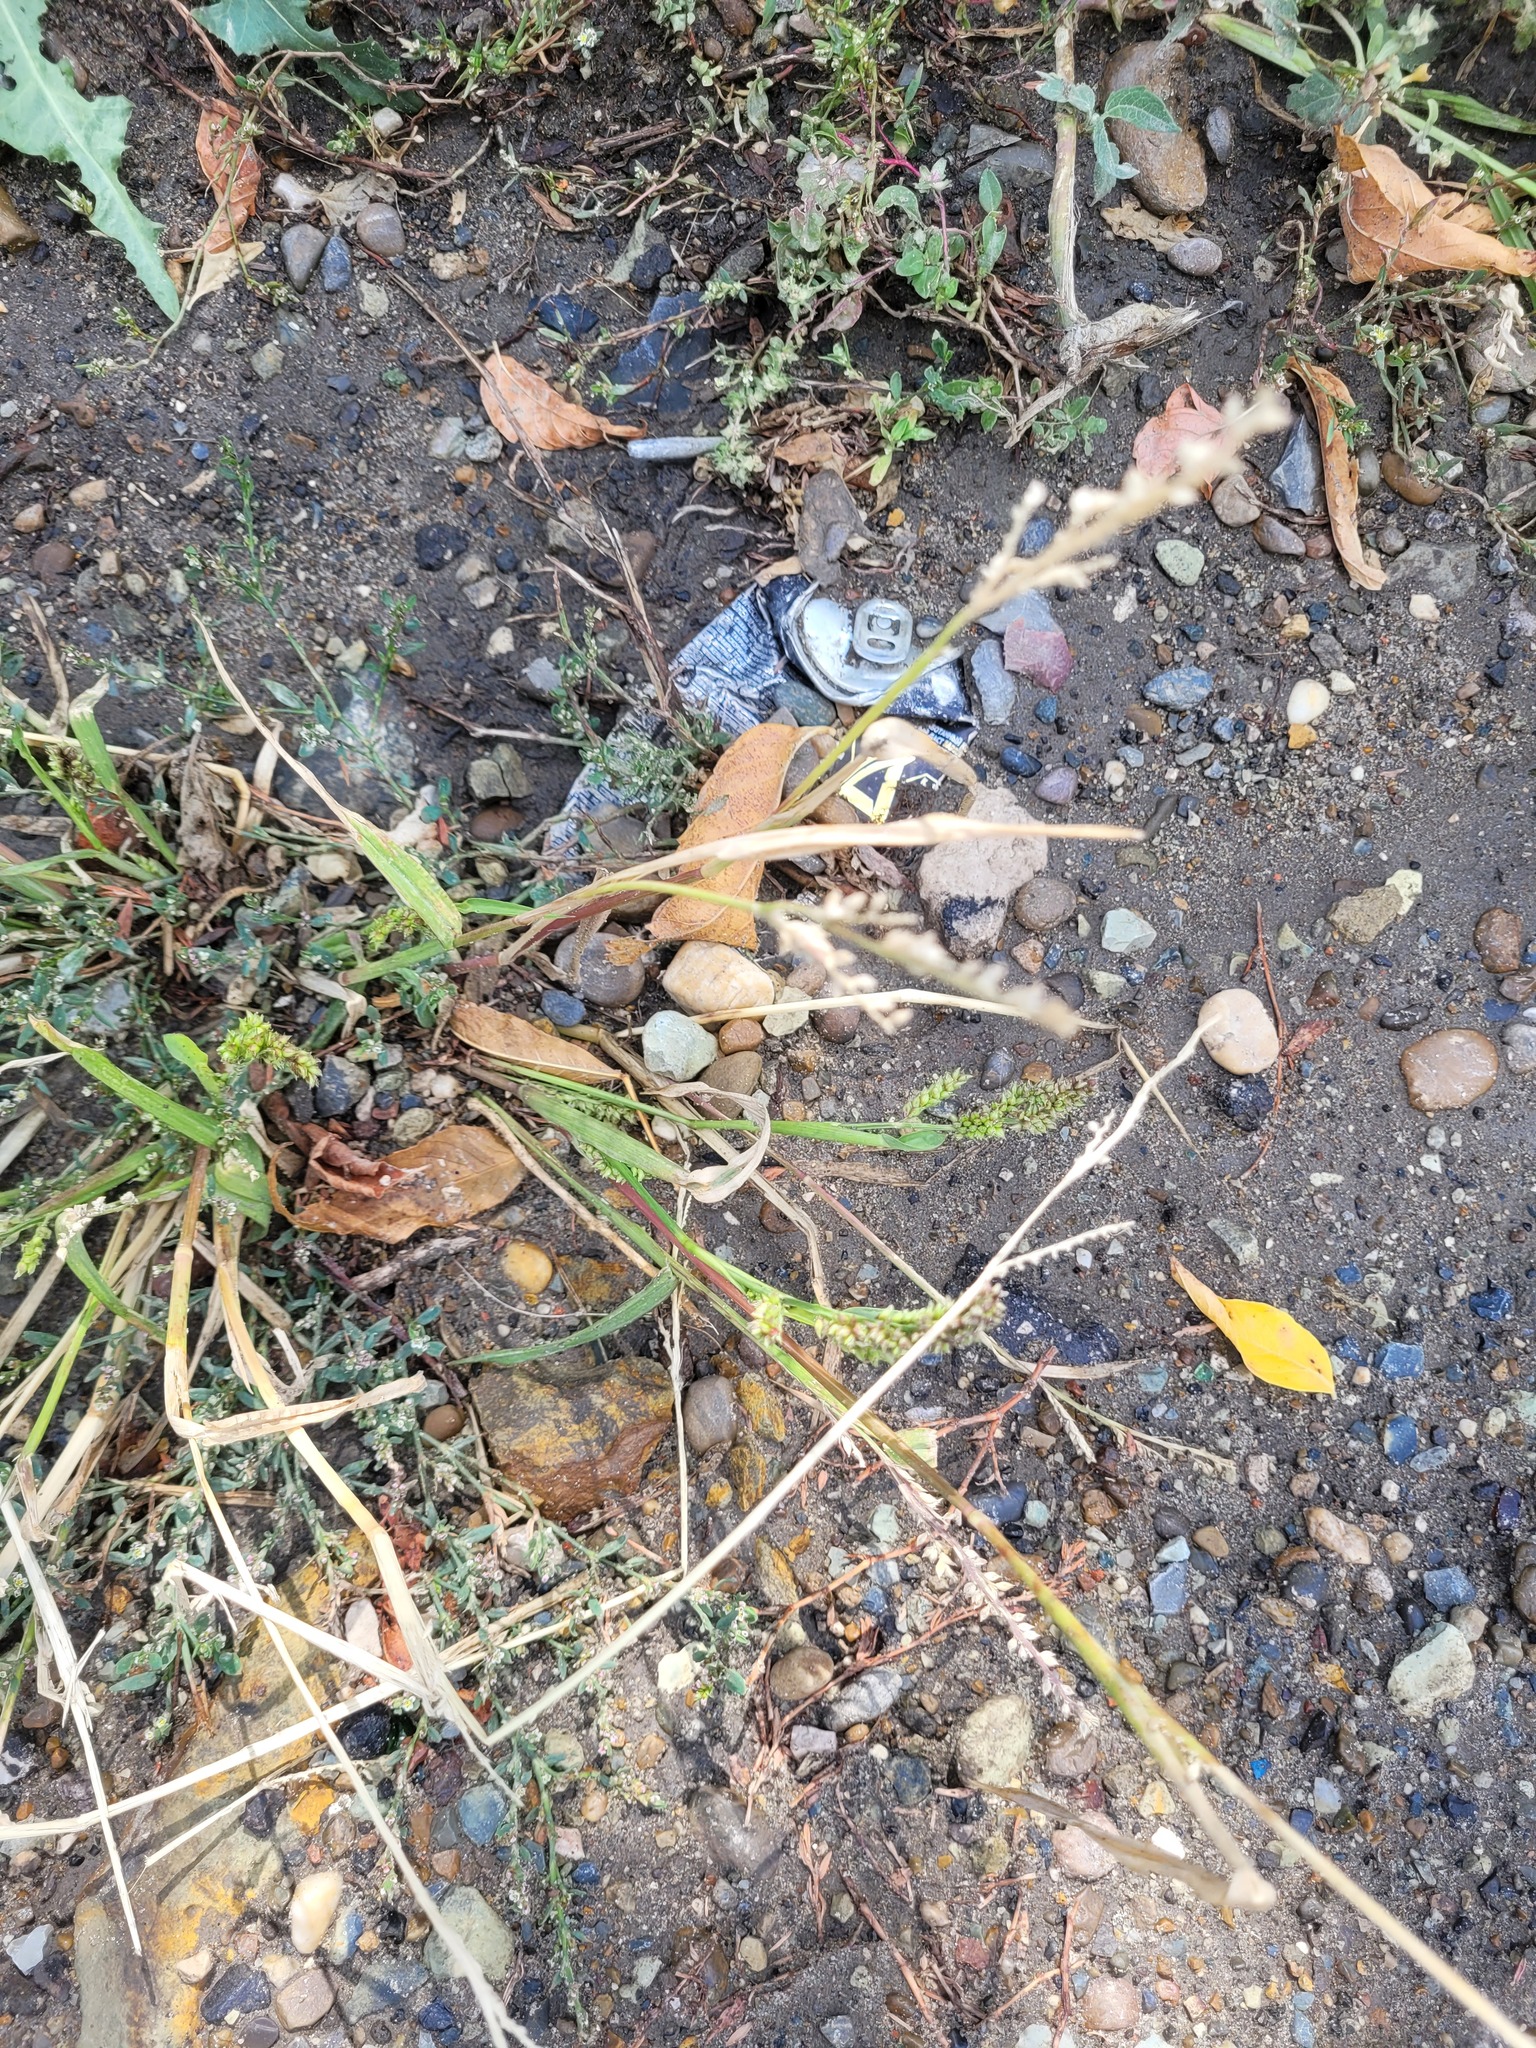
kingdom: Plantae
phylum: Tracheophyta
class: Liliopsida
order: Poales
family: Poaceae
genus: Echinochloa
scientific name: Echinochloa crus-galli
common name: Cockspur
